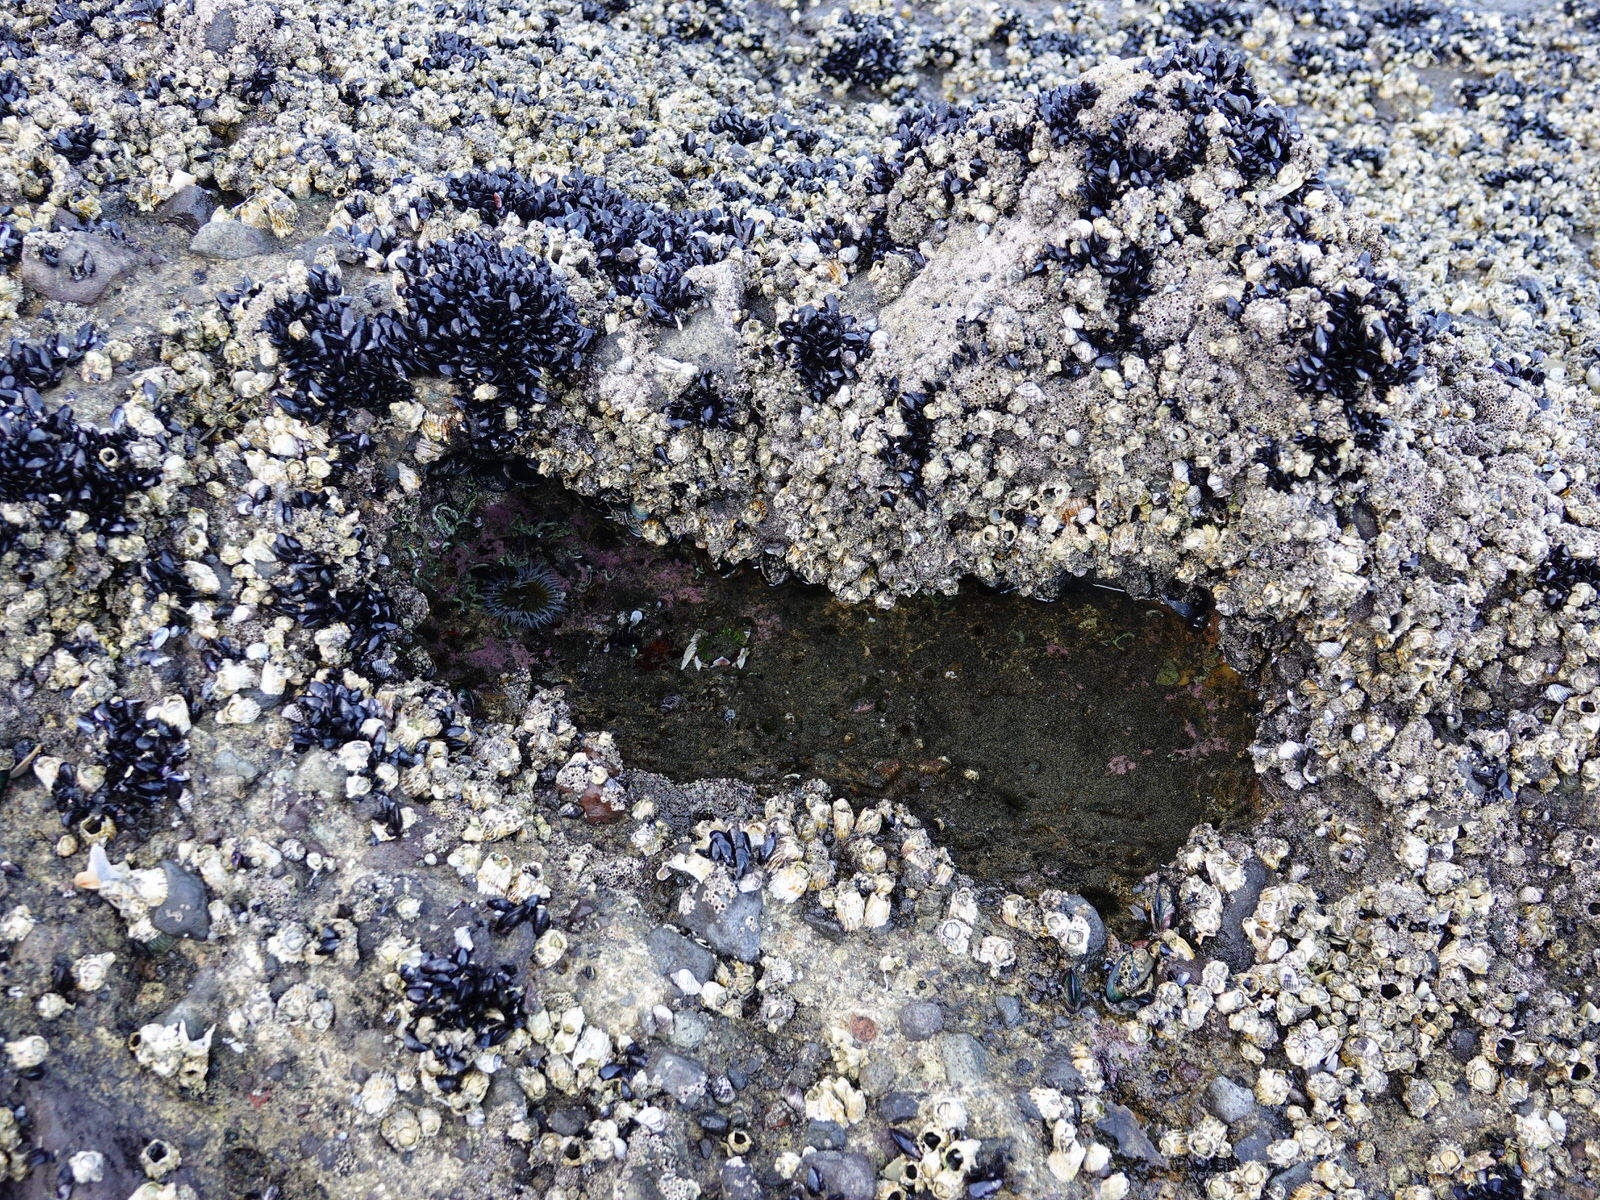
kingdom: Animalia
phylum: Cnidaria
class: Anthozoa
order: Actiniaria
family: Actiniidae
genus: Oulactis
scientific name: Oulactis magna
